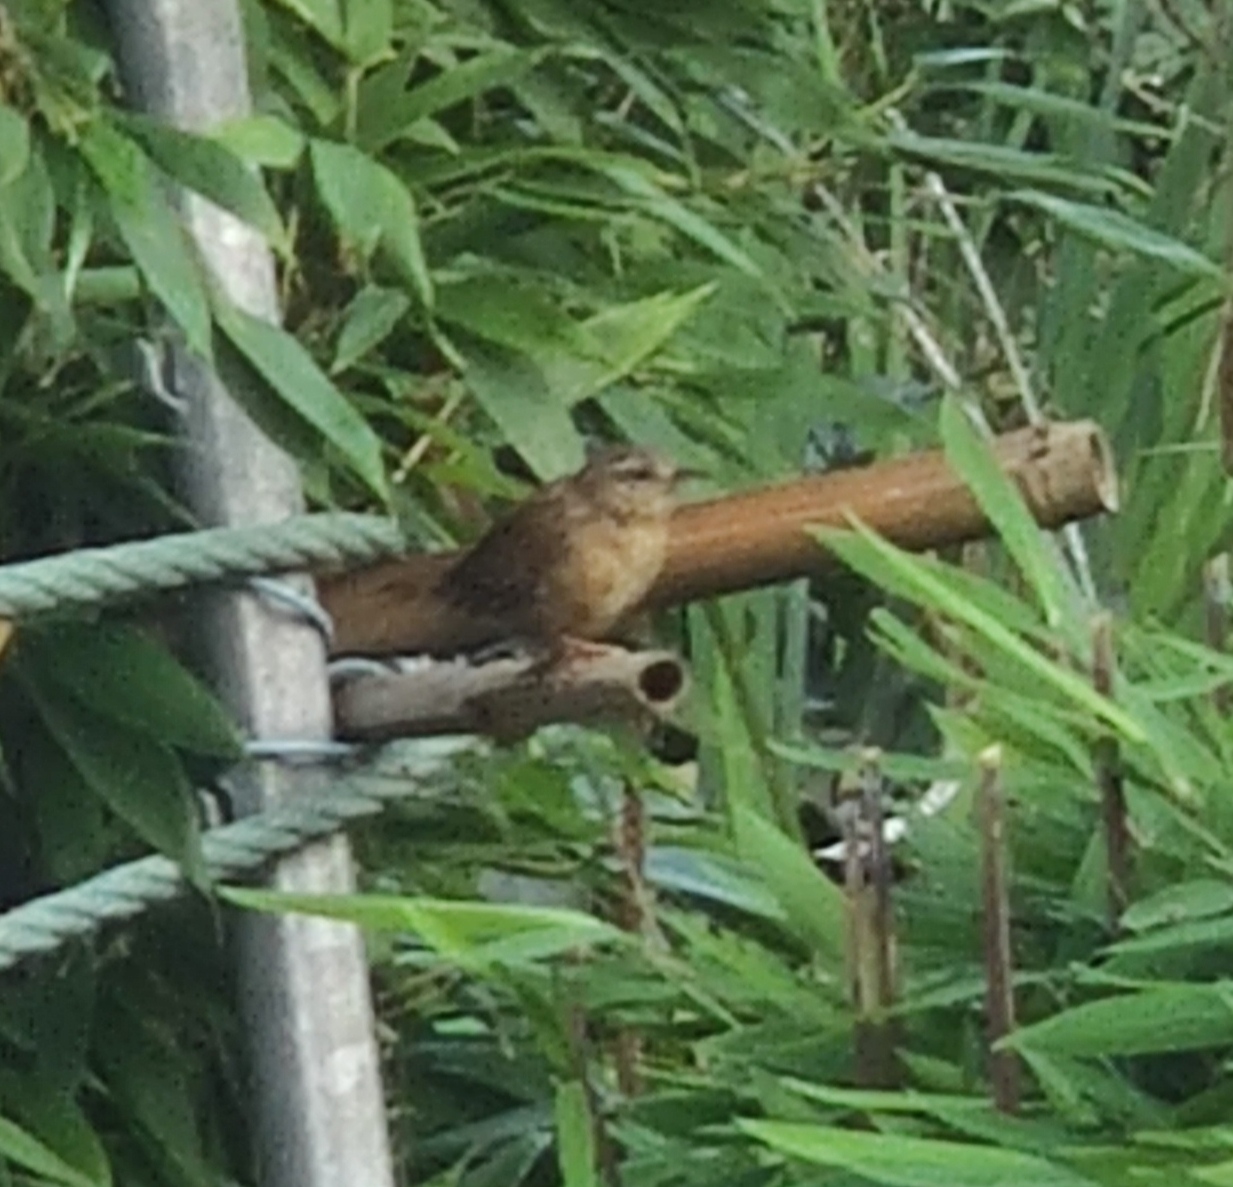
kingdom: Animalia
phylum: Chordata
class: Aves
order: Passeriformes
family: Troglodytidae
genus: Troglodytes
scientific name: Troglodytes troglodytes
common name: Eurasian wren
